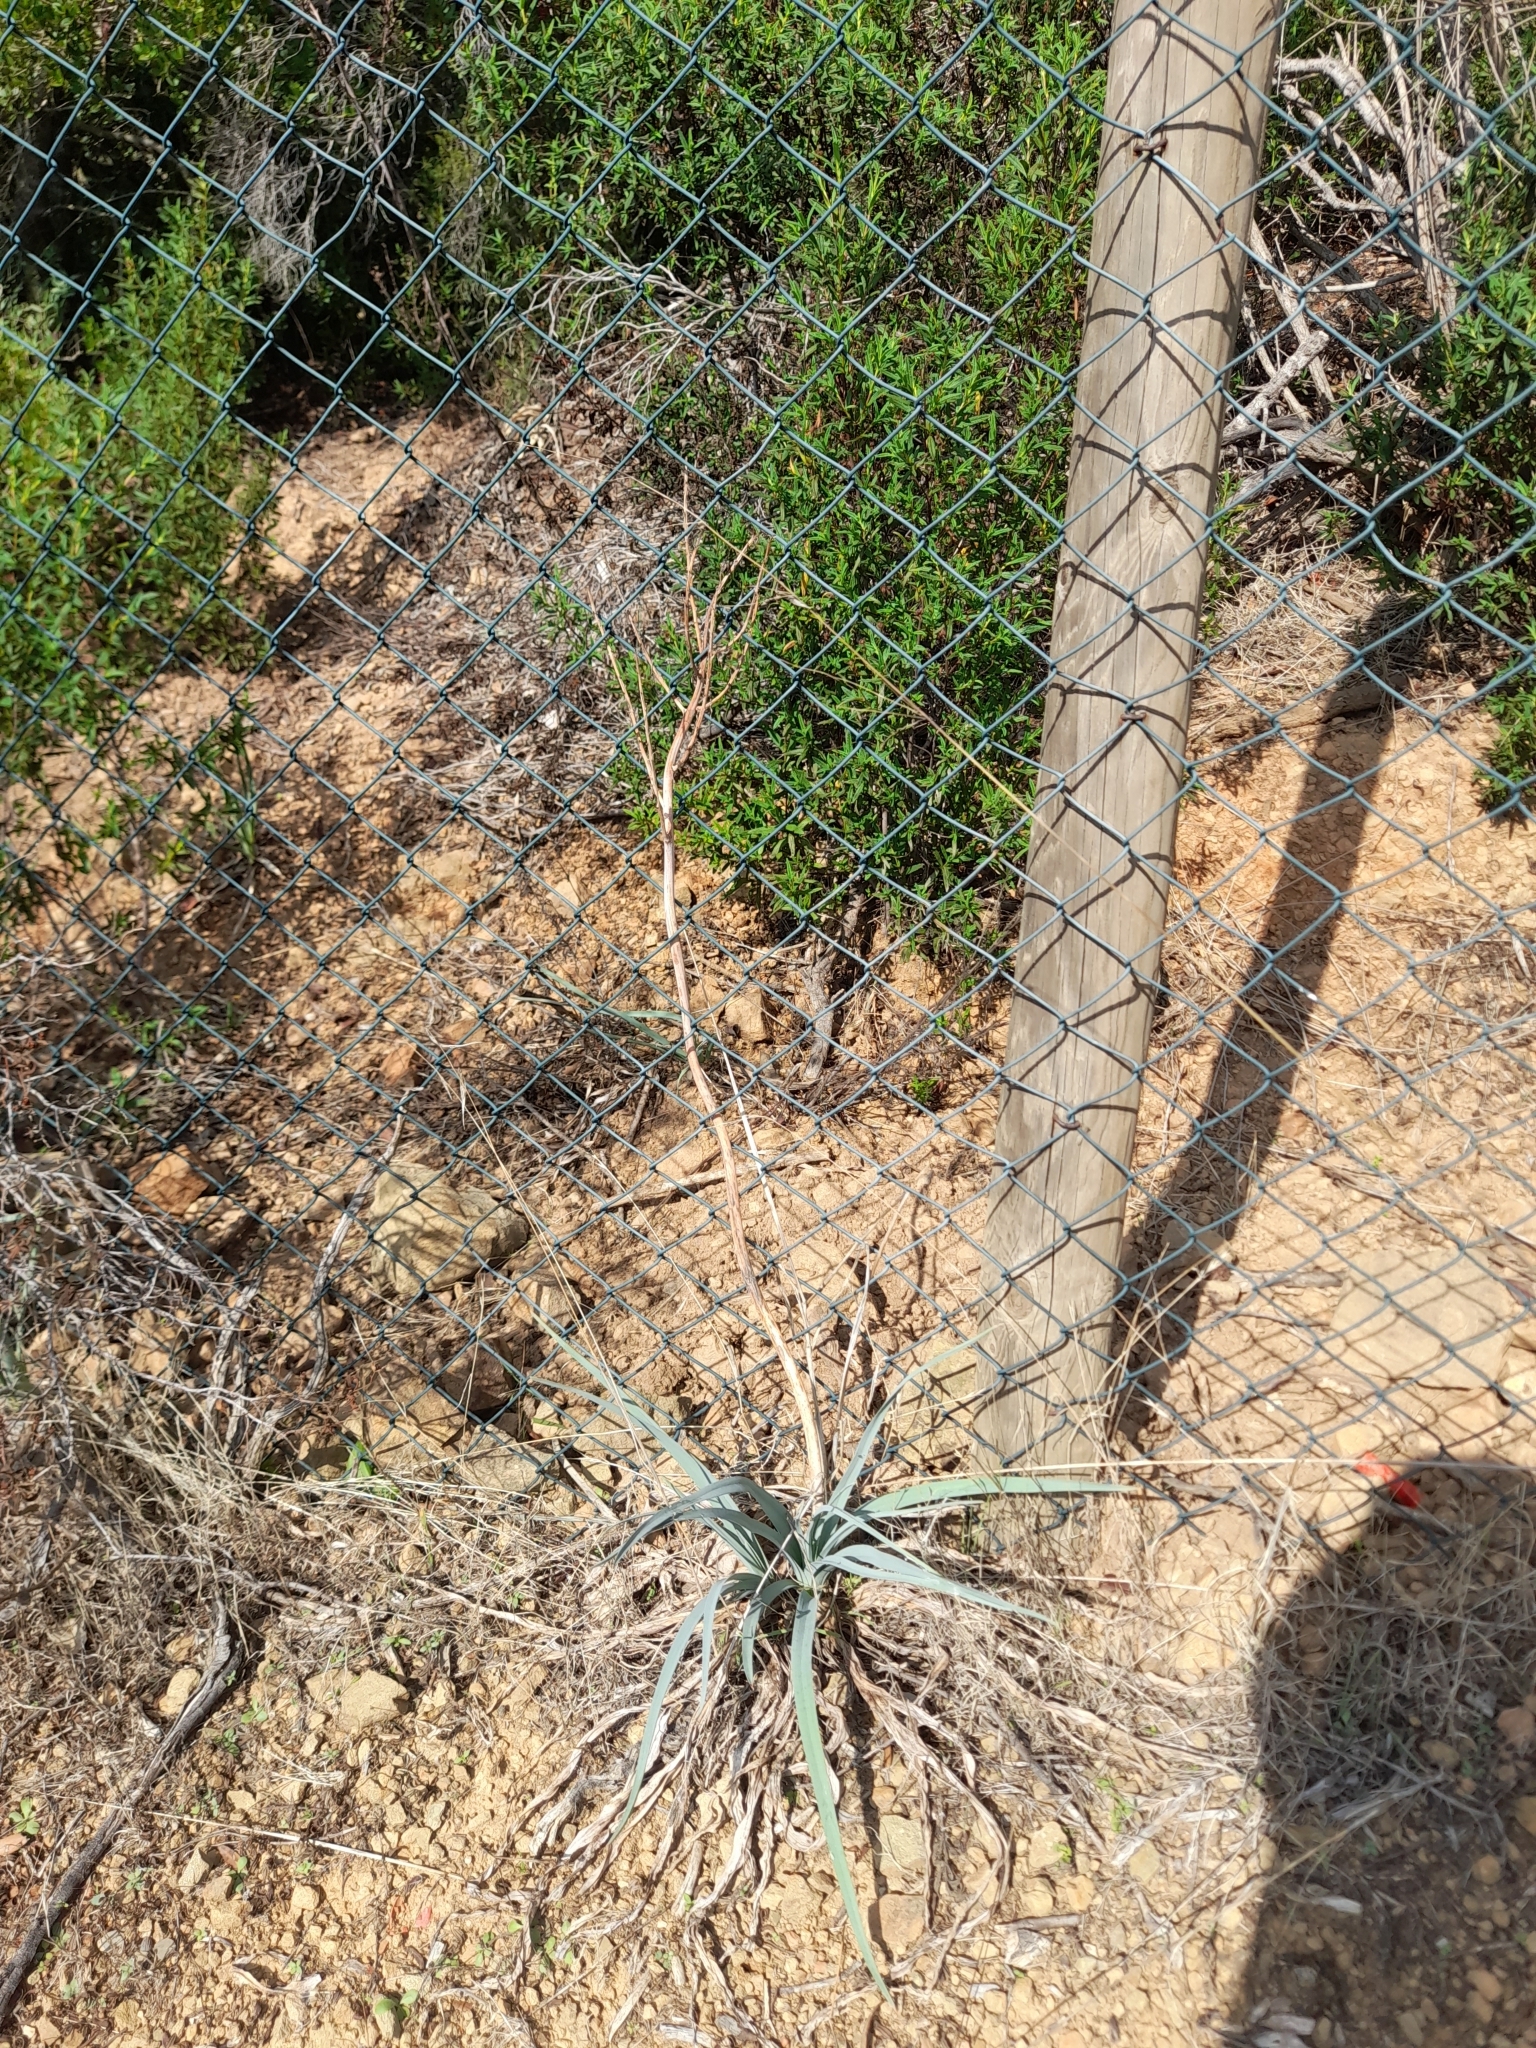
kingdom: Plantae
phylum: Tracheophyta
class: Liliopsida
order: Asparagales
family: Asphodelaceae
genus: Asphodelus
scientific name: Asphodelus ramosus
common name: Silverrod
